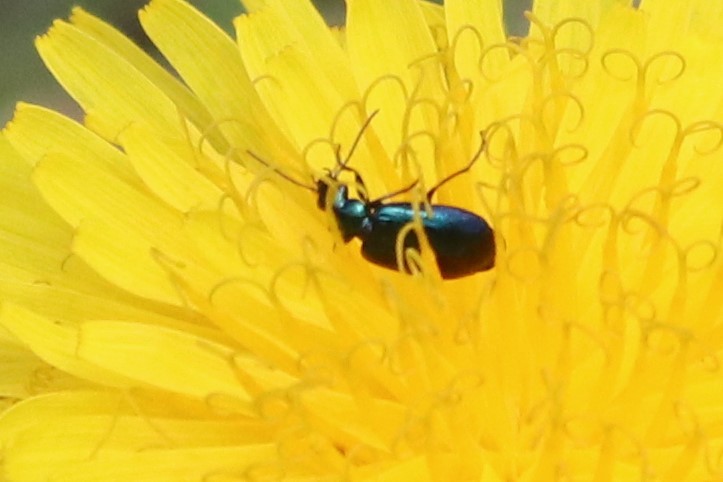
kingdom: Animalia
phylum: Arthropoda
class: Insecta
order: Coleoptera
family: Carabidae
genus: Lebia
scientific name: Lebia viridis
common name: Flower lebia beetle
